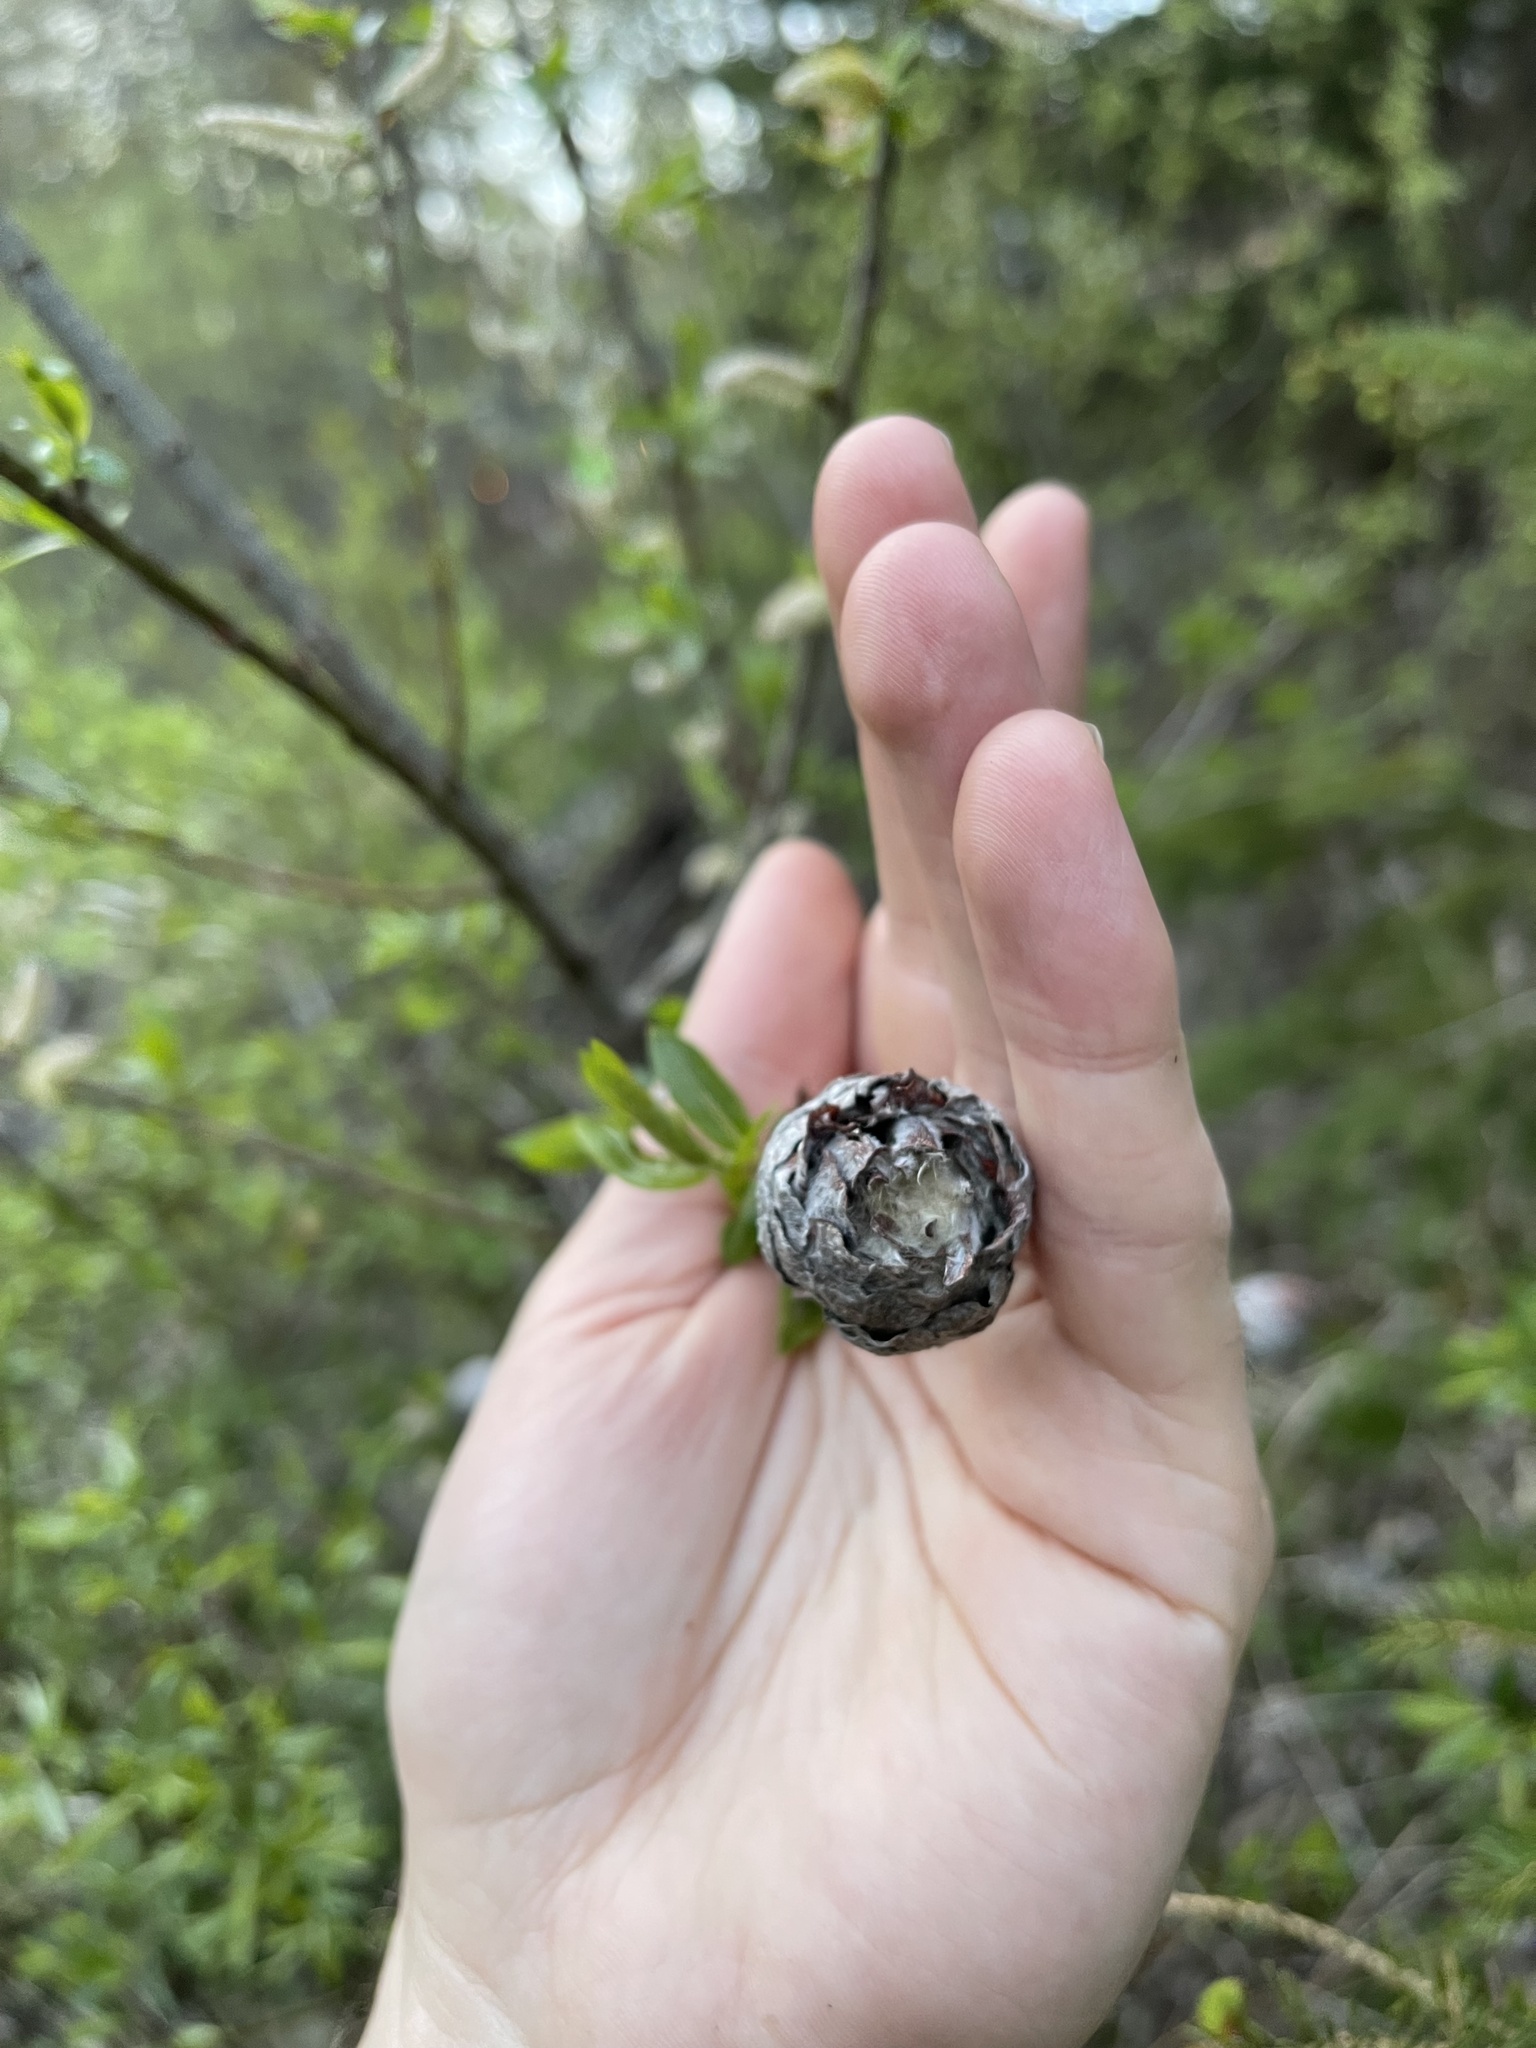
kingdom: Animalia
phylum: Arthropoda
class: Insecta
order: Diptera
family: Cecidomyiidae
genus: Rabdophaga
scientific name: Rabdophaga strobiloides
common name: Willow pinecone gall midge
